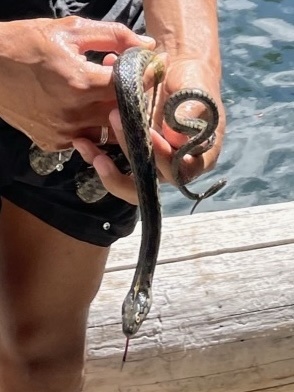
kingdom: Animalia
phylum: Chordata
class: Squamata
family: Colubridae
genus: Thamnophis
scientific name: Thamnophis couchii
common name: Western aquatic garter snake
